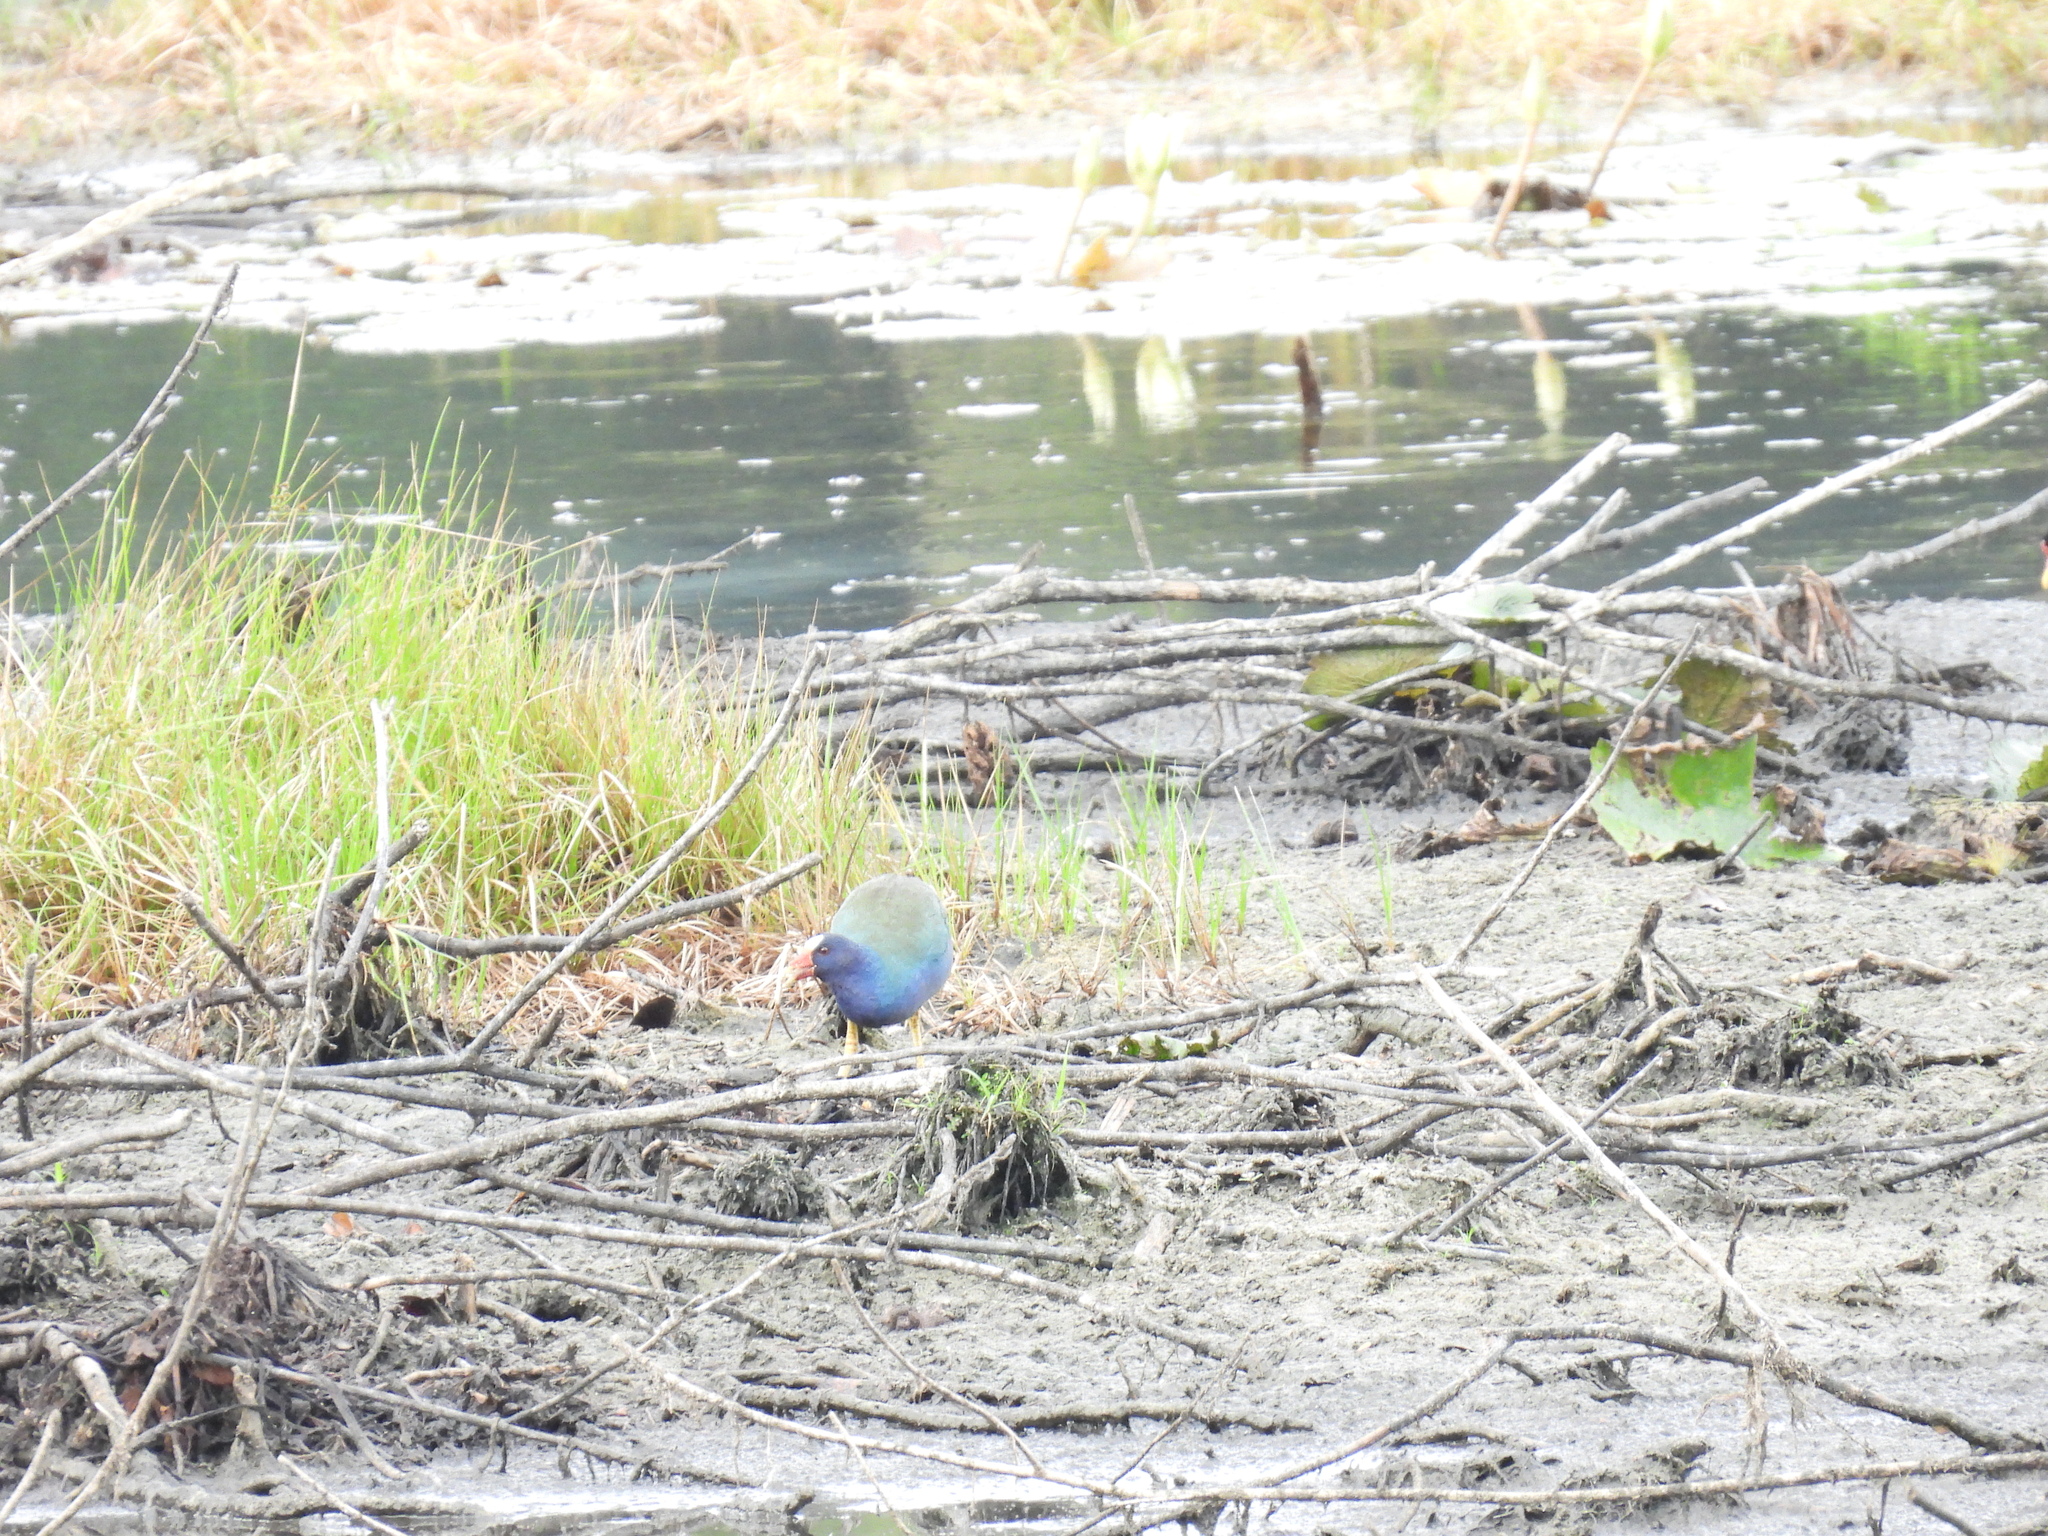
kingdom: Animalia
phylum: Chordata
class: Aves
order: Gruiformes
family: Rallidae
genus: Porphyrio
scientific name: Porphyrio martinica
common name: Purple gallinule
